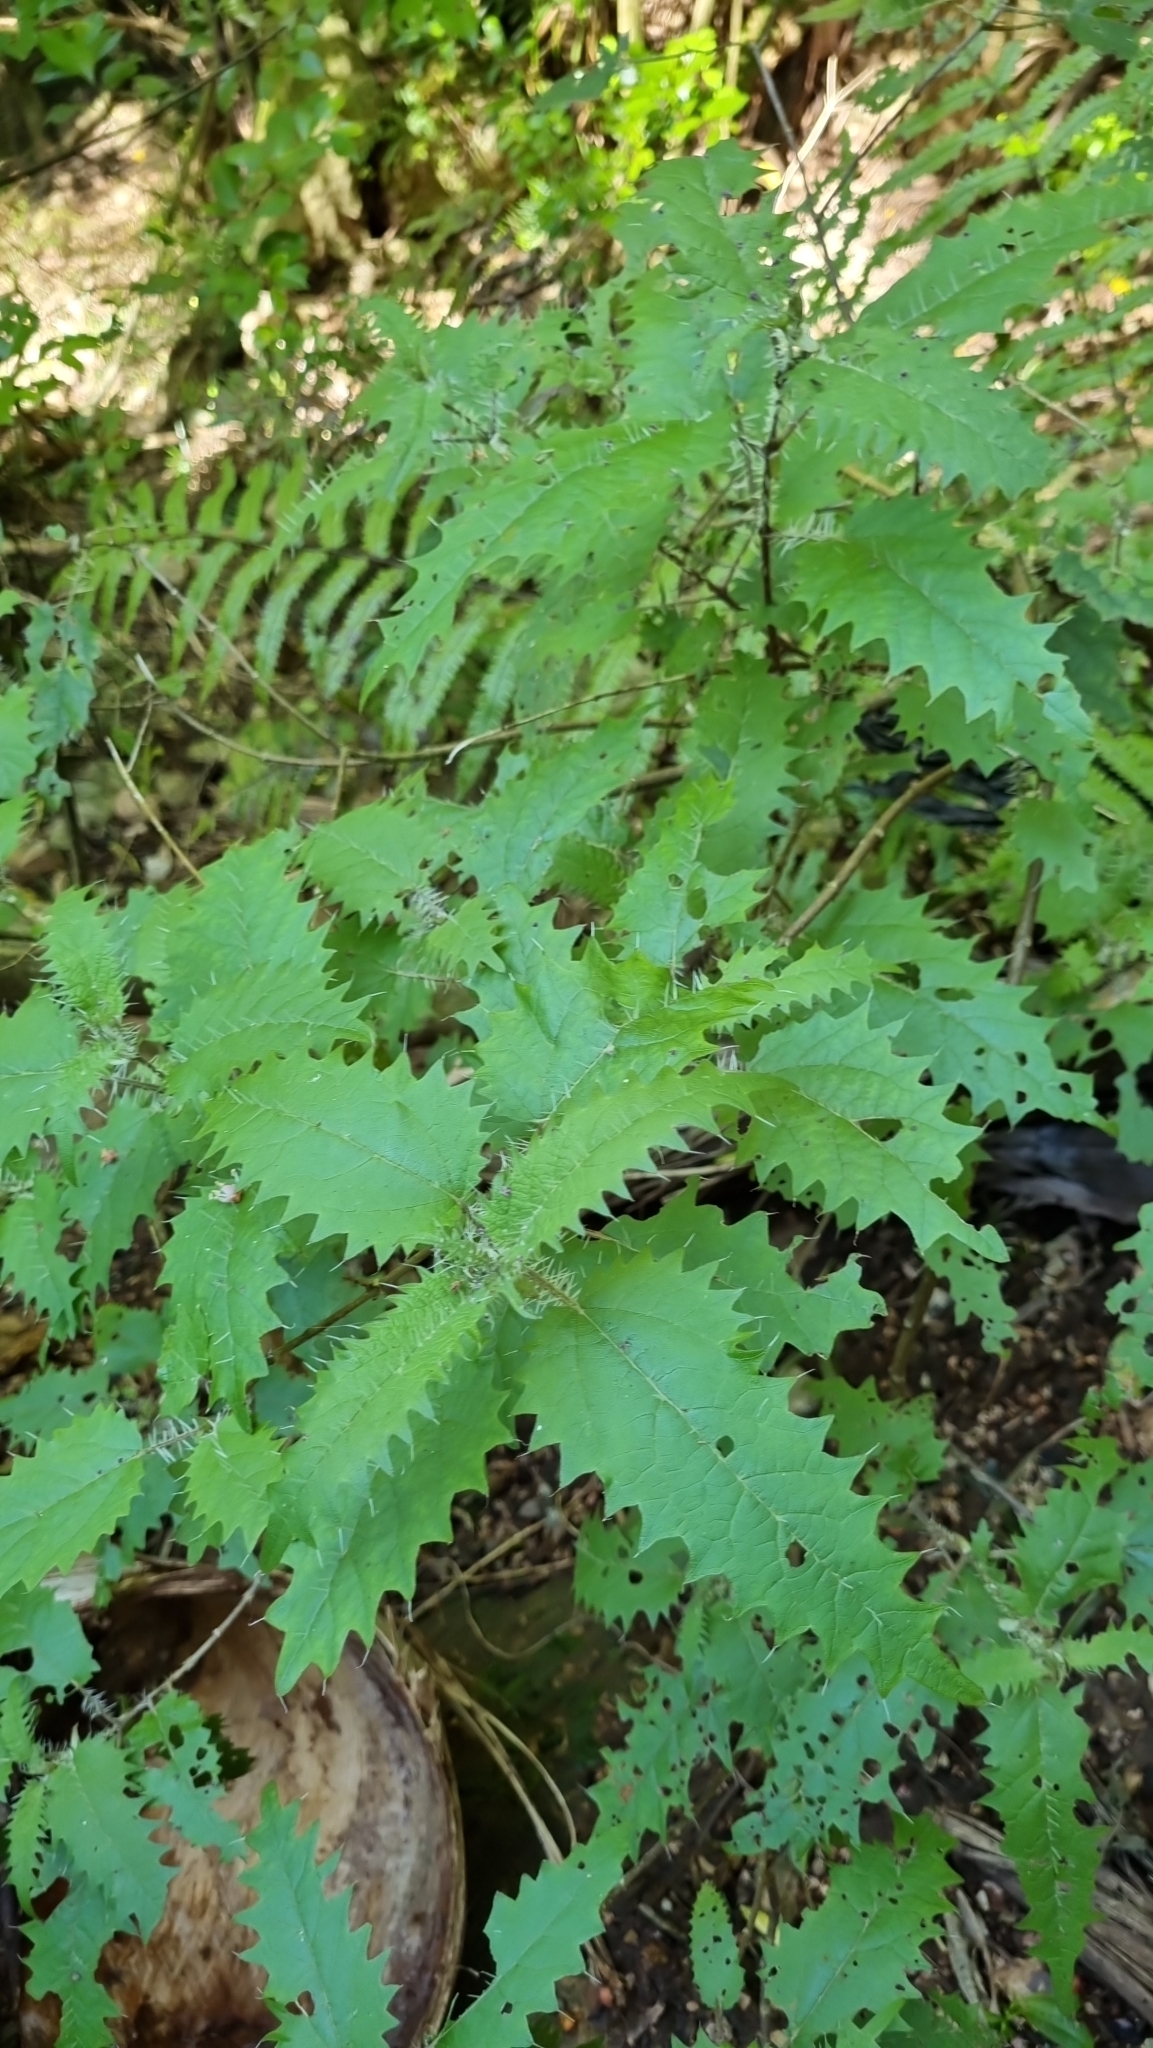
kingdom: Plantae
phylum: Tracheophyta
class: Magnoliopsida
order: Rosales
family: Urticaceae
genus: Urtica
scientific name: Urtica ferox
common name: Tree nettle
